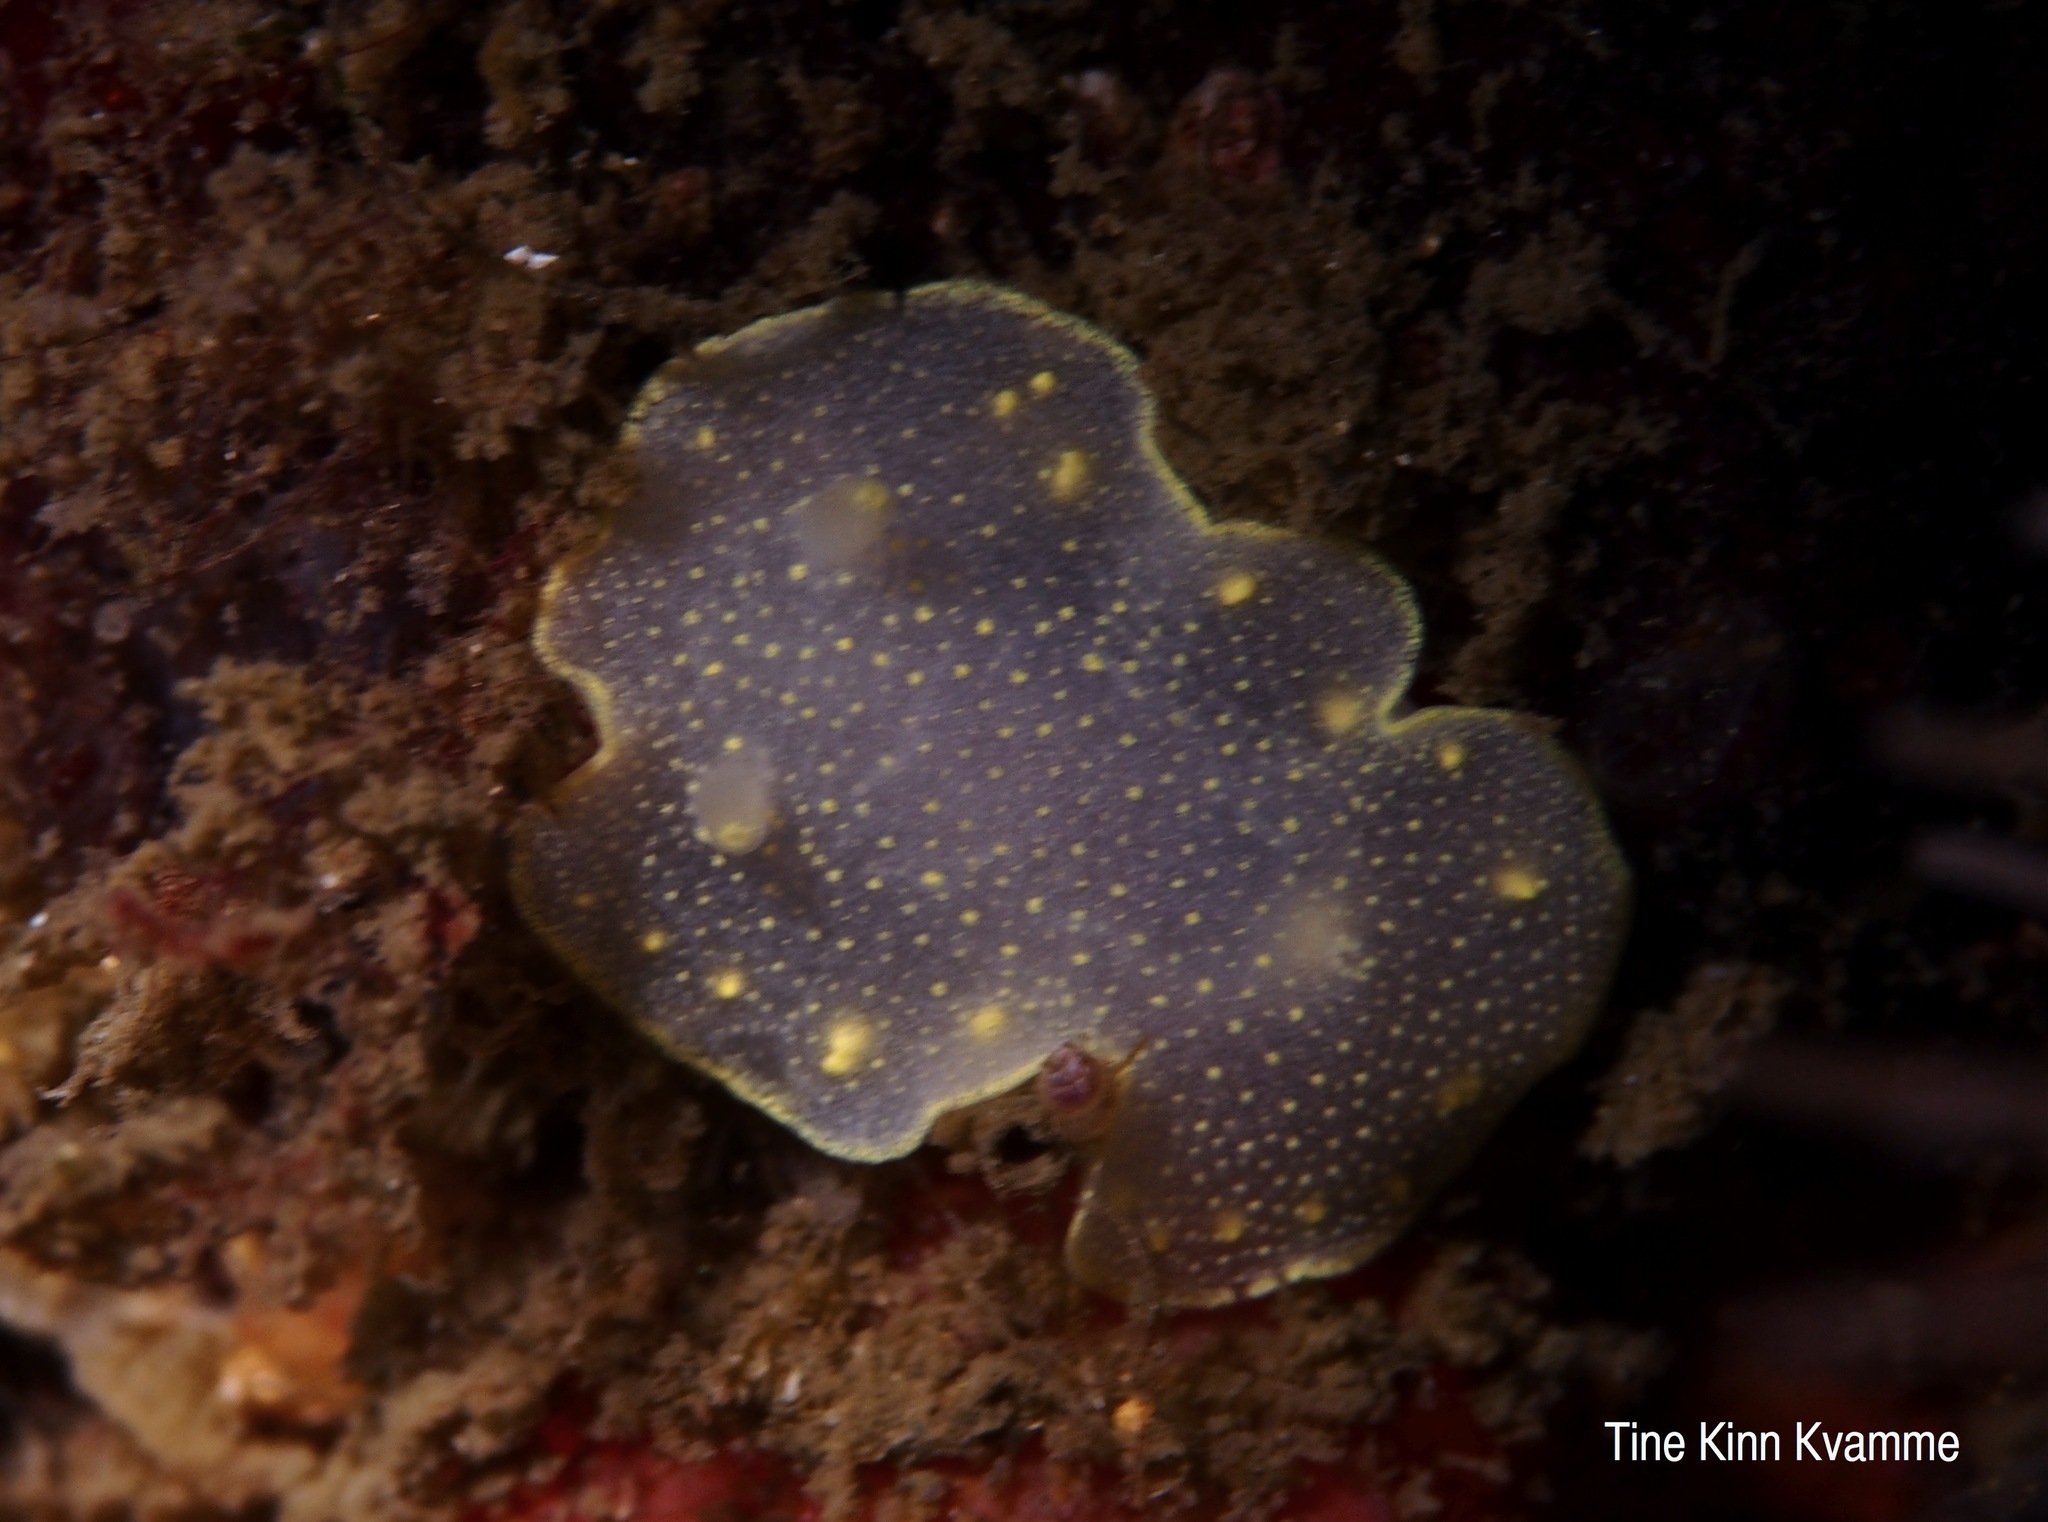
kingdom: Animalia
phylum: Mollusca
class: Gastropoda
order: Nudibranchia
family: Cadlinidae
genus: Cadlina
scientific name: Cadlina laevis
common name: White atlantic cadlina
